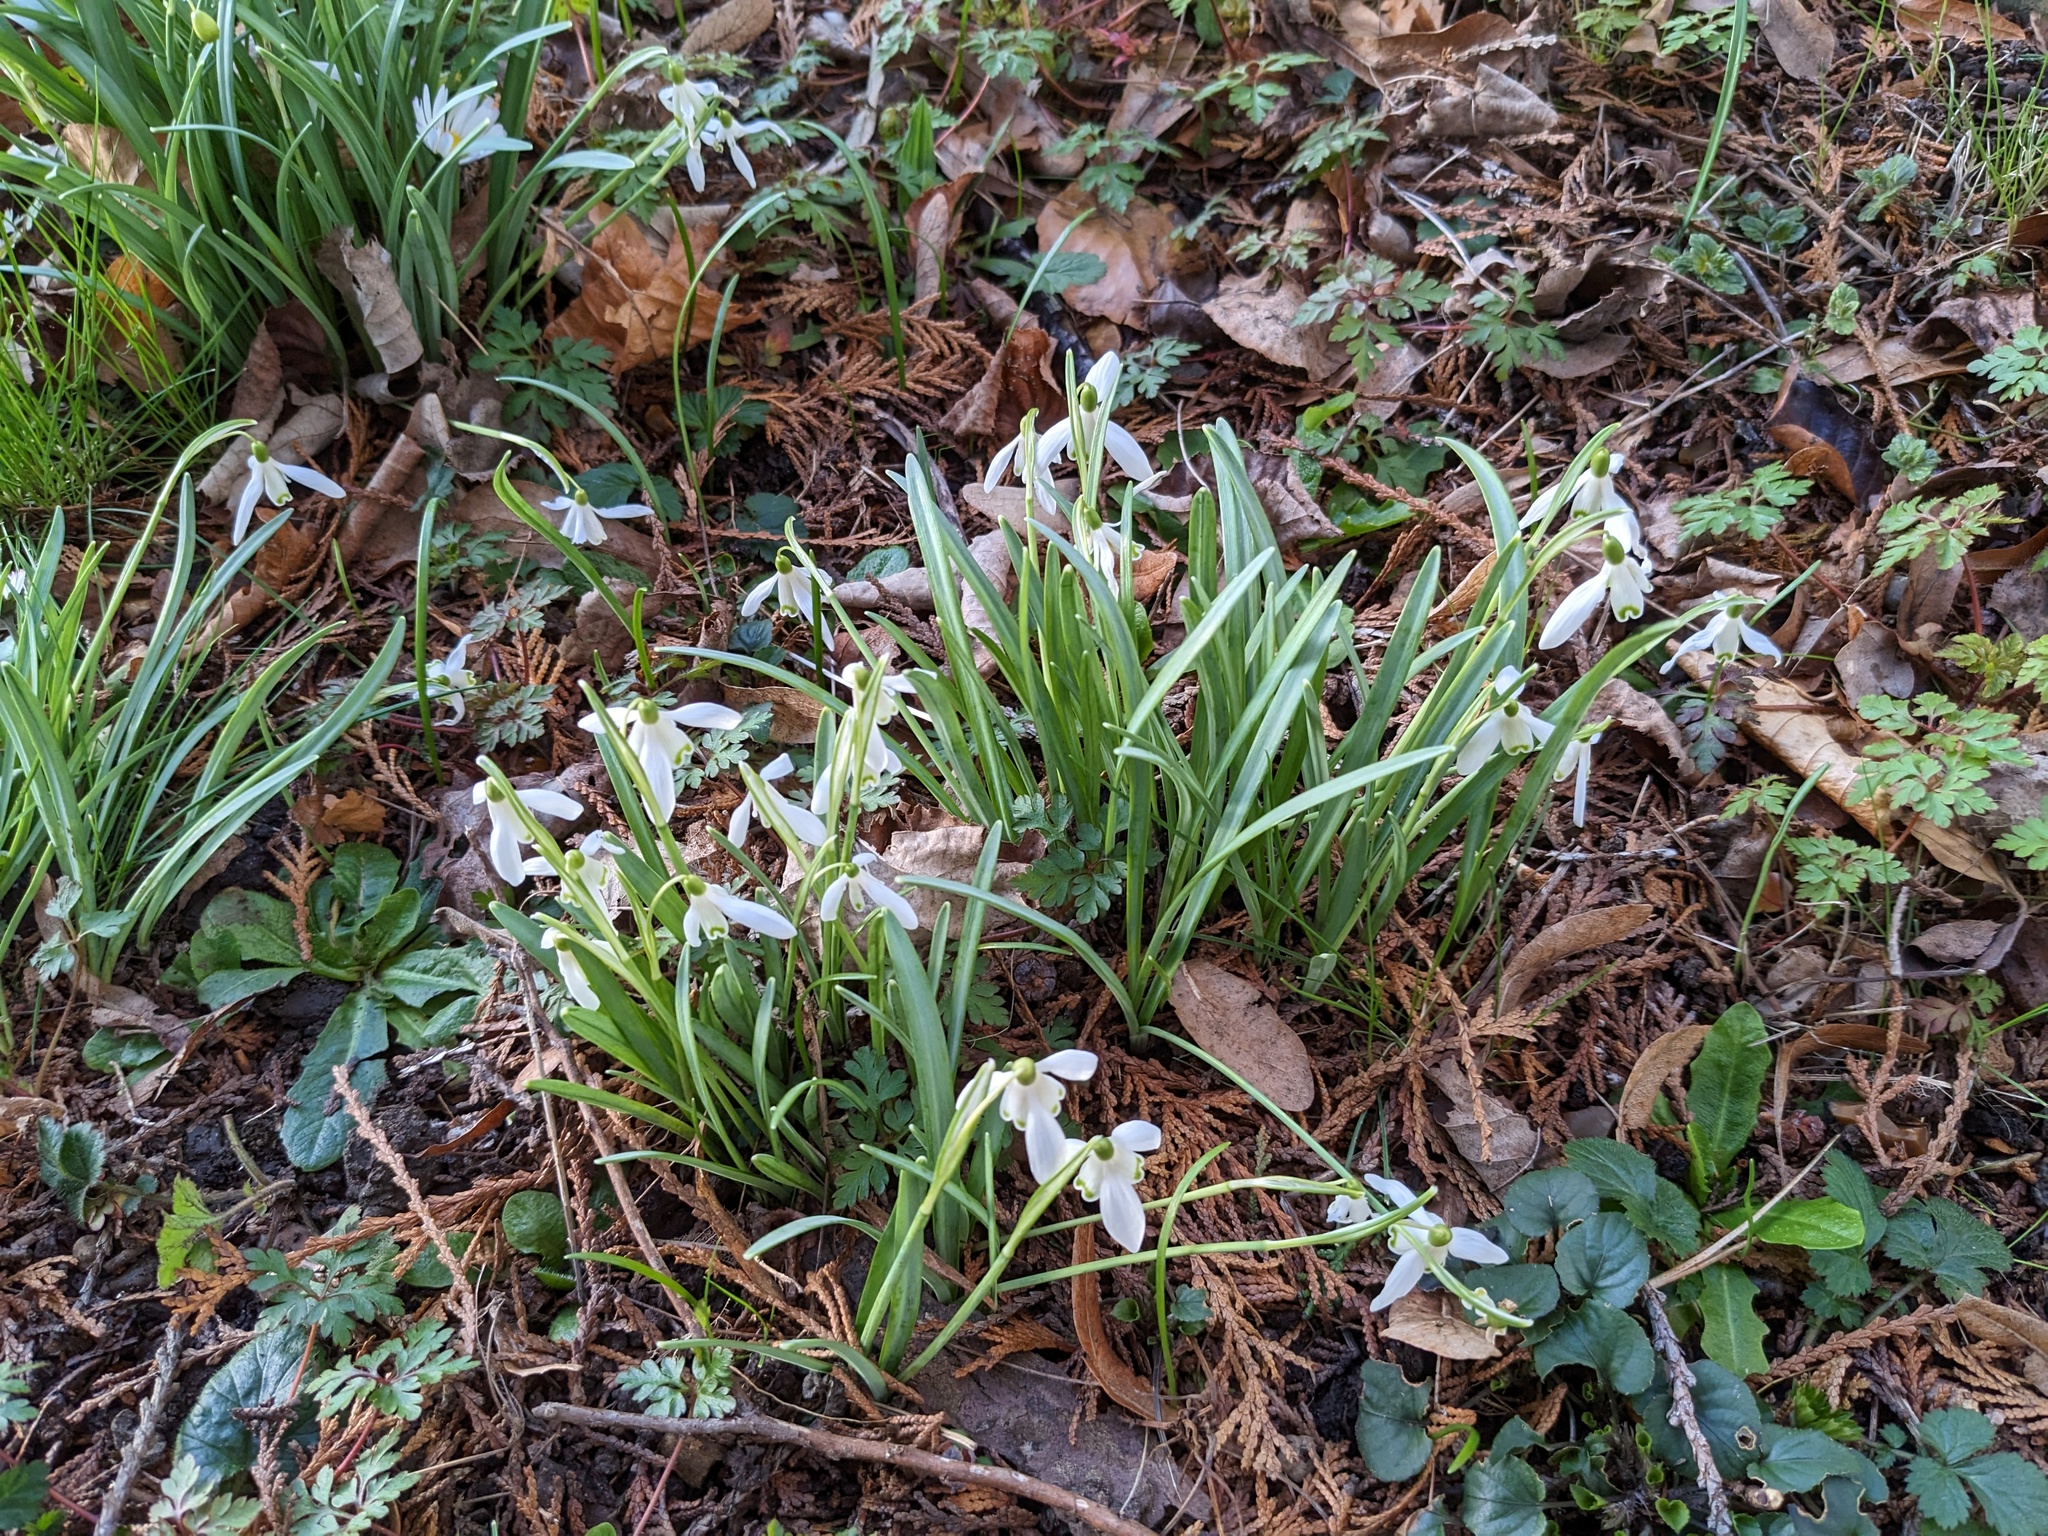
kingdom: Plantae
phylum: Tracheophyta
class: Liliopsida
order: Asparagales
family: Amaryllidaceae
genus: Galanthus
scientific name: Galanthus nivalis
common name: Snowdrop
